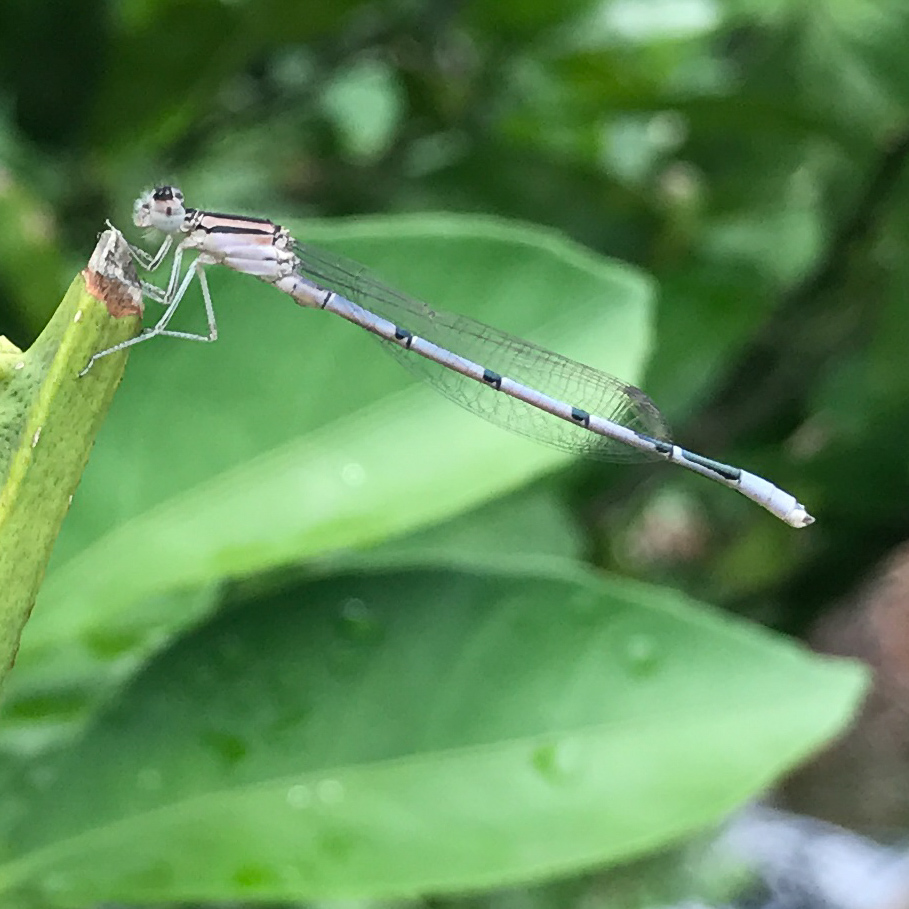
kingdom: Animalia
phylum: Arthropoda
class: Insecta
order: Odonata
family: Coenagrionidae
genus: Enallagma
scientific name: Enallagma civile
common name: Damselfly
